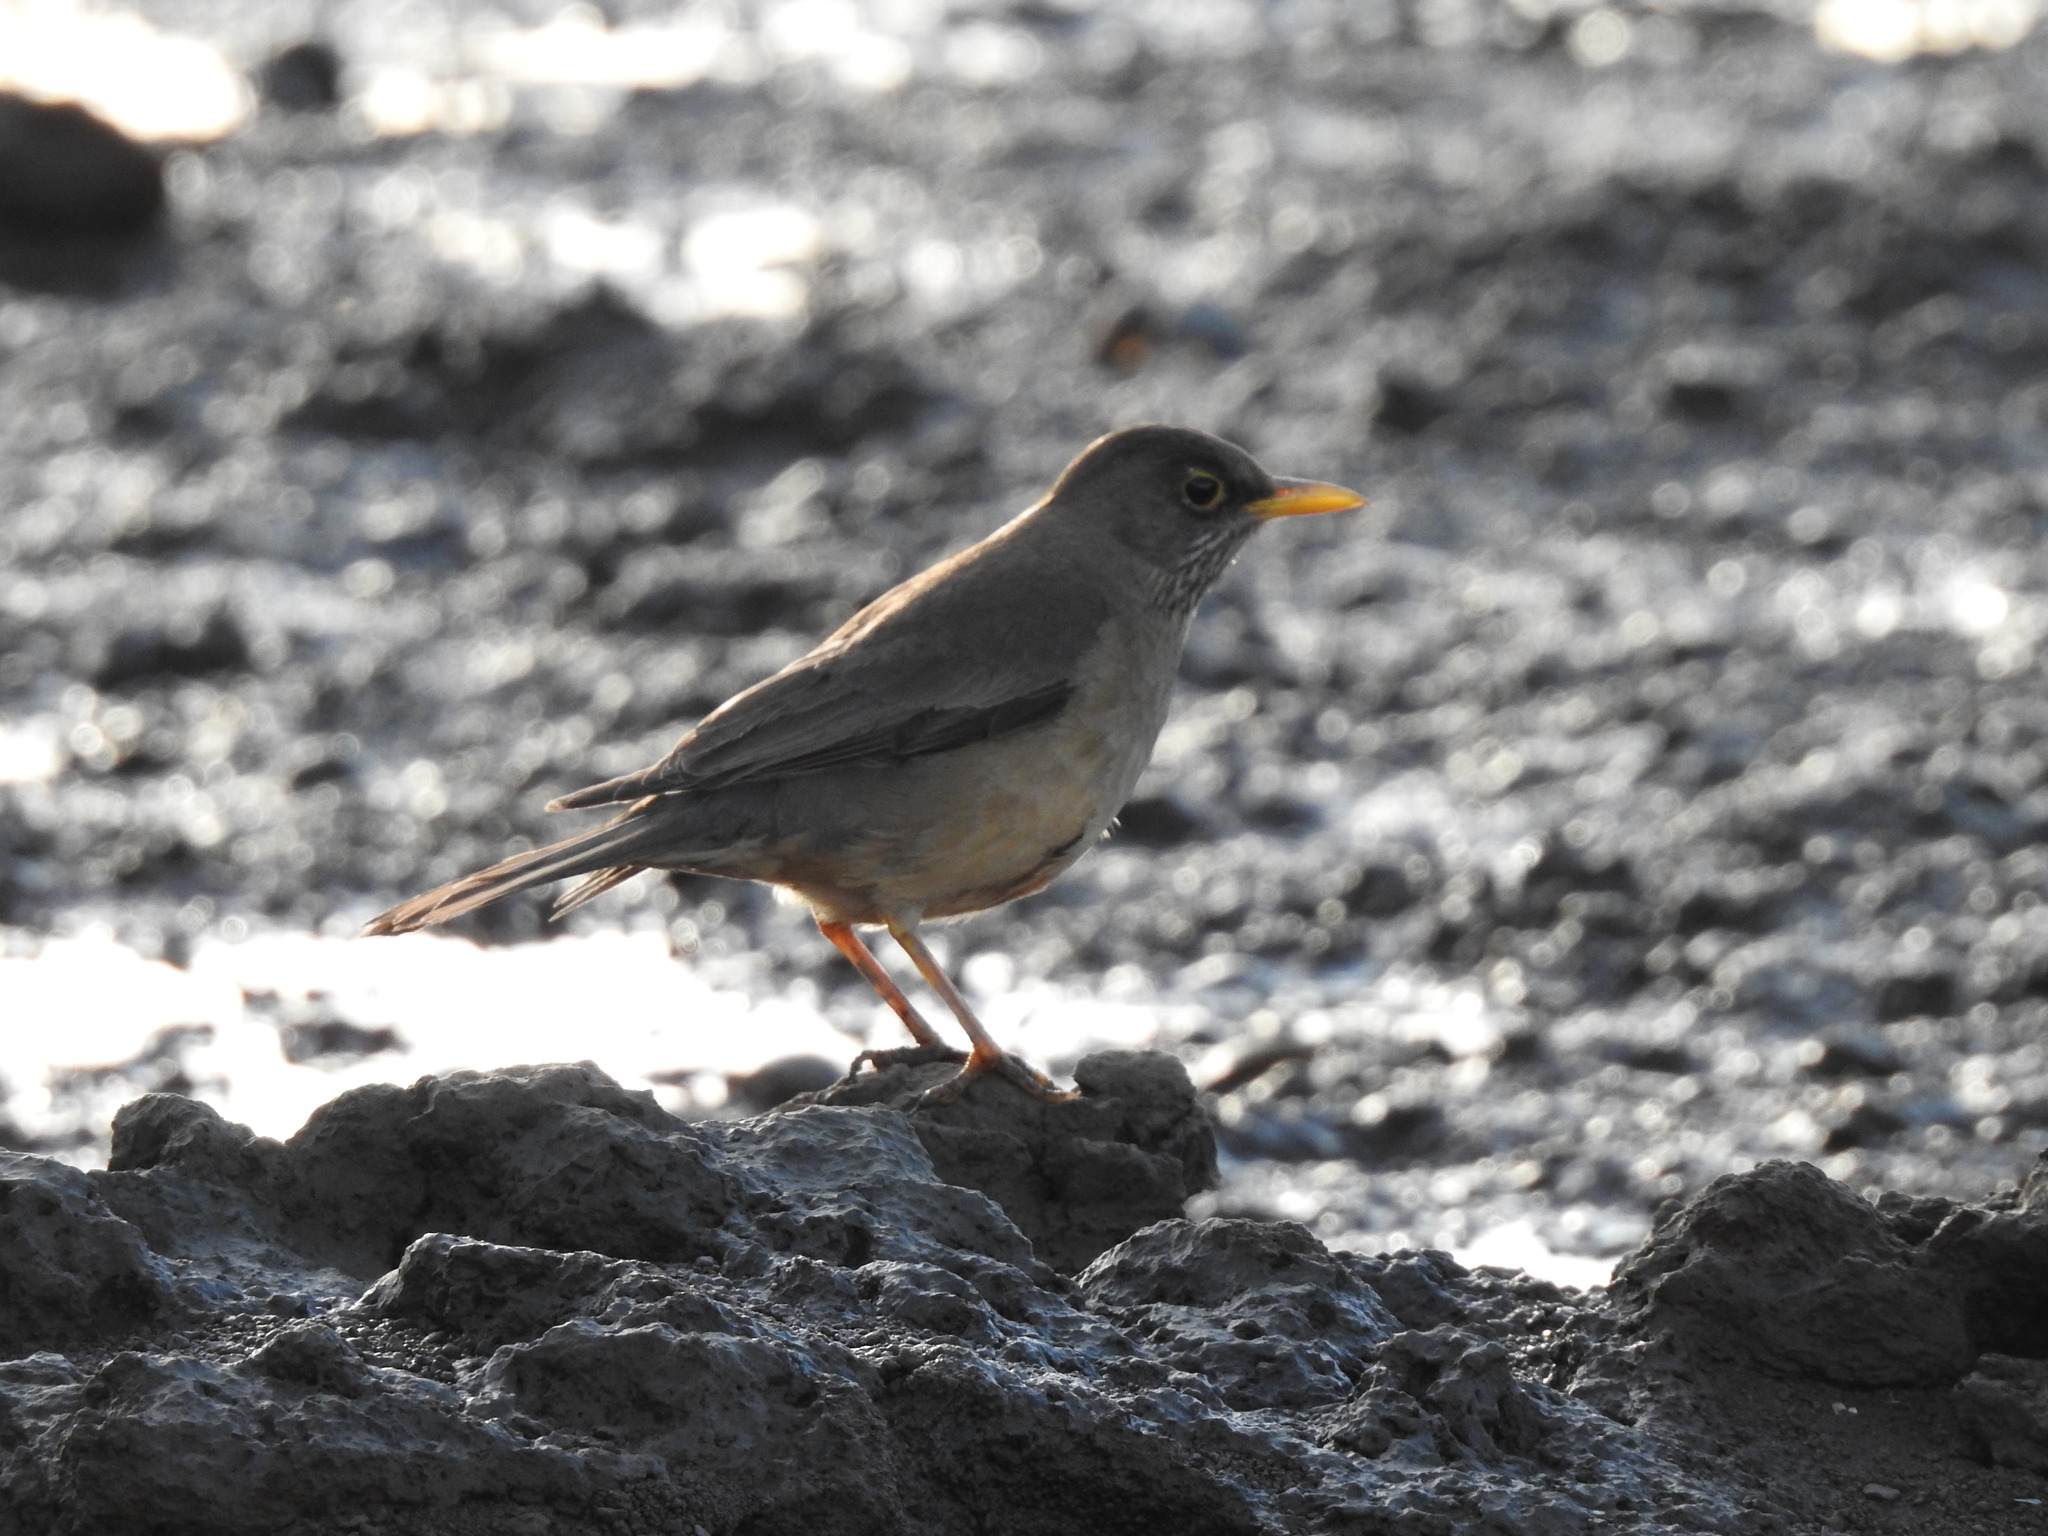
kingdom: Animalia
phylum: Chordata
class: Aves
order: Passeriformes
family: Turdidae
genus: Turdus
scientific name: Turdus falcklandii
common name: Austral thrush
